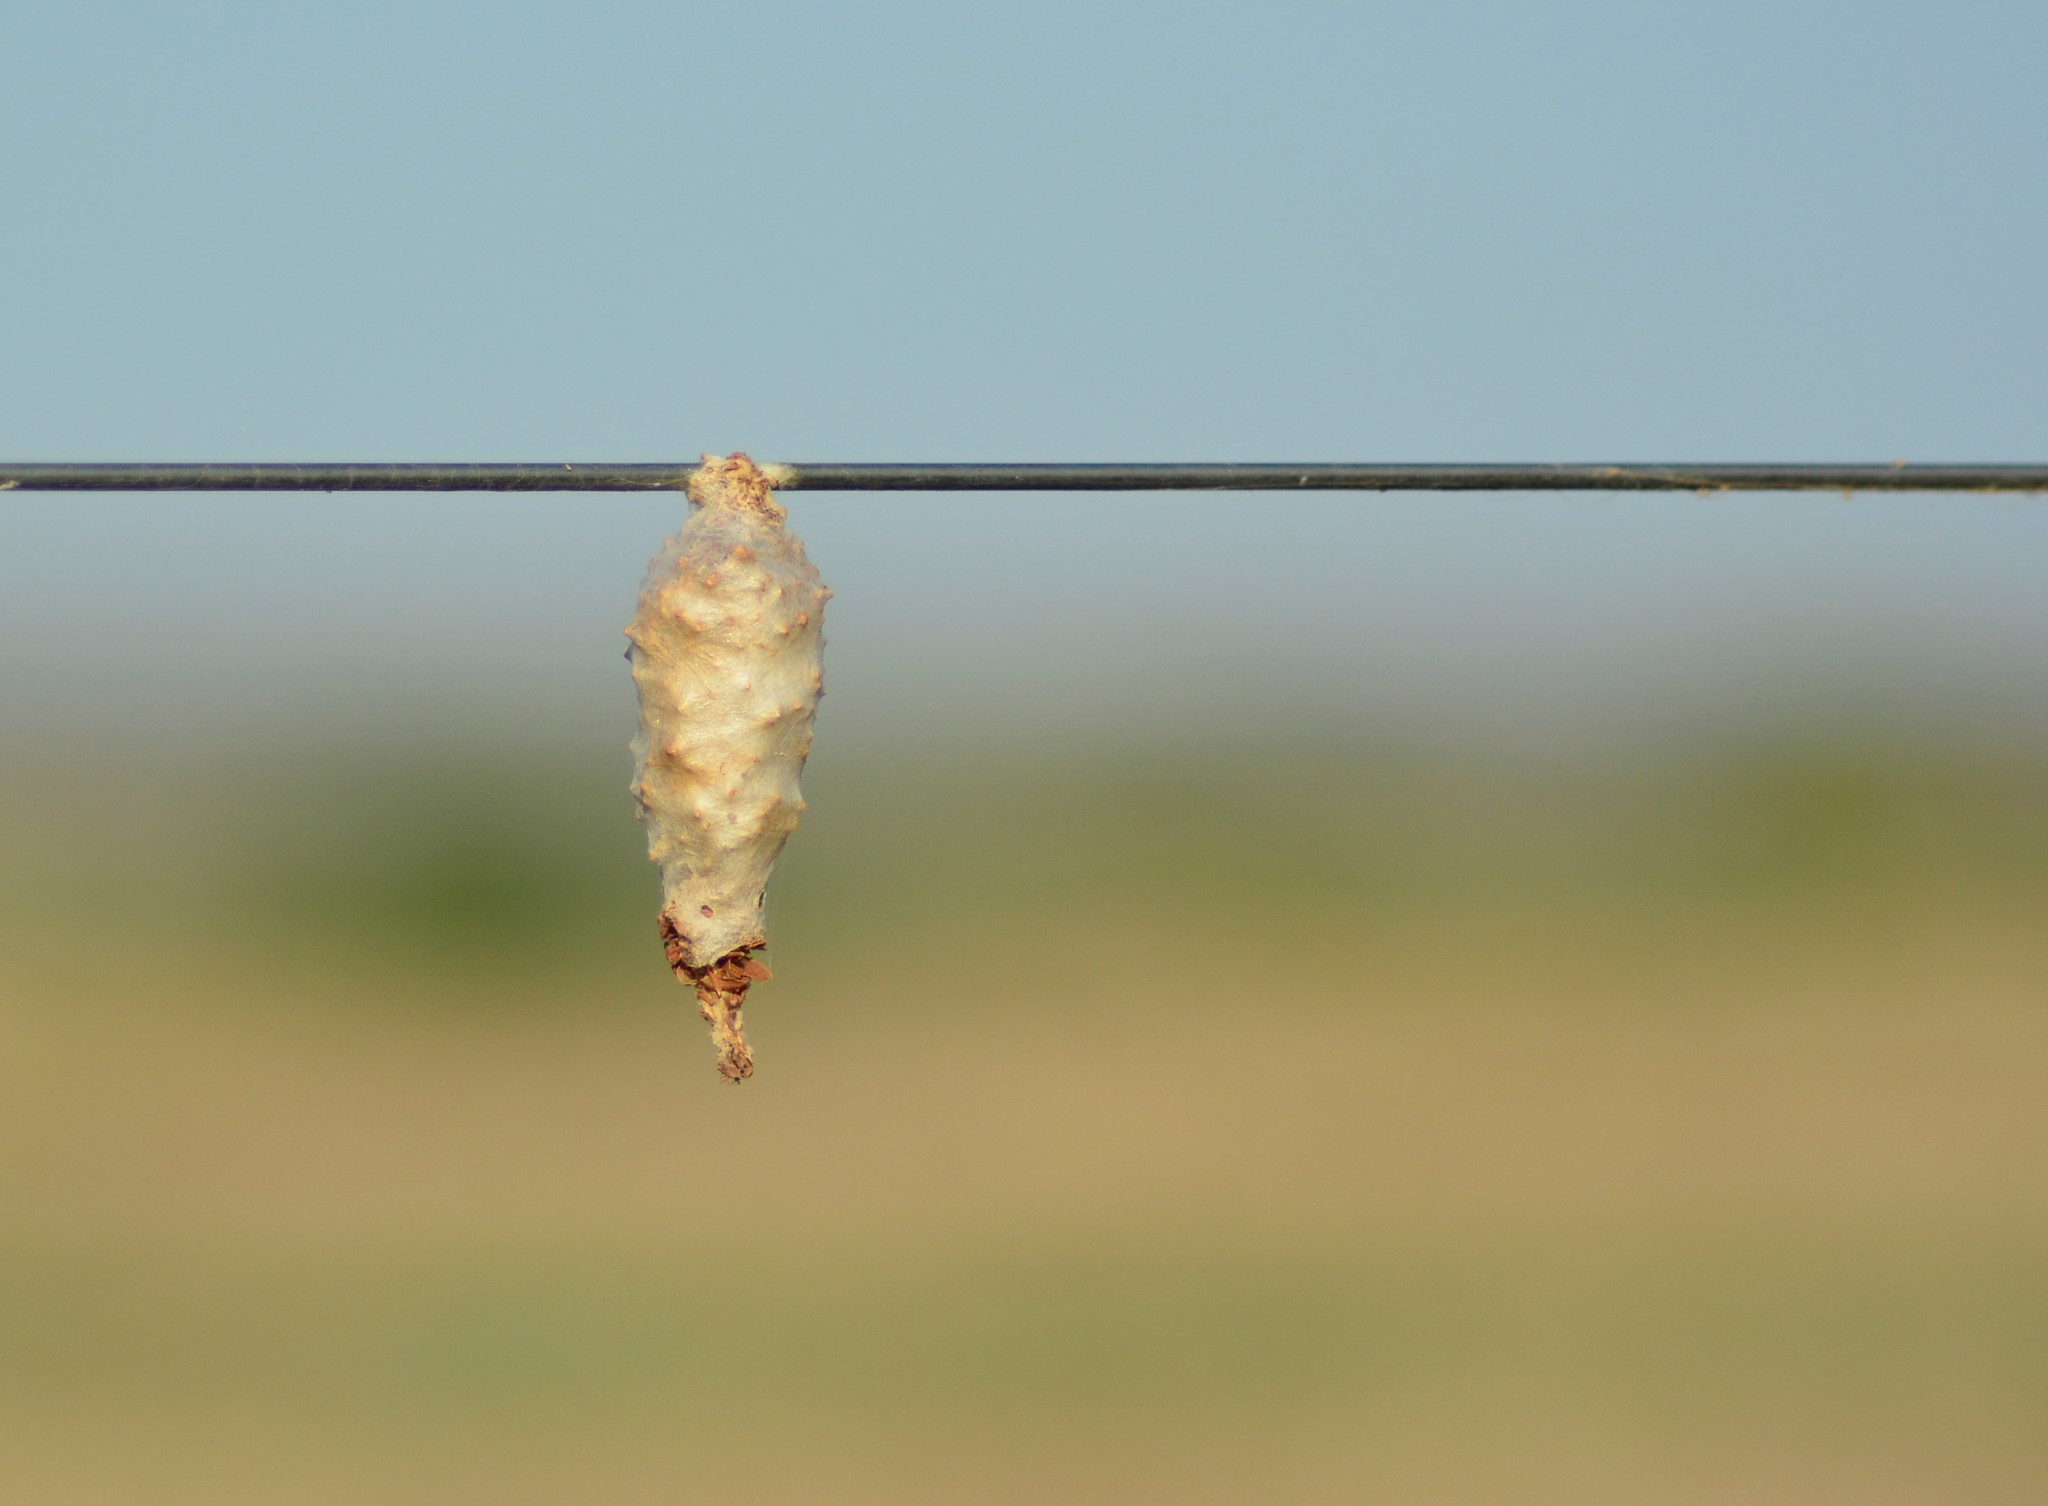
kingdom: Animalia
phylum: Arthropoda
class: Insecta
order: Lepidoptera
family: Psychidae
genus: Oiketicus
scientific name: Oiketicus
